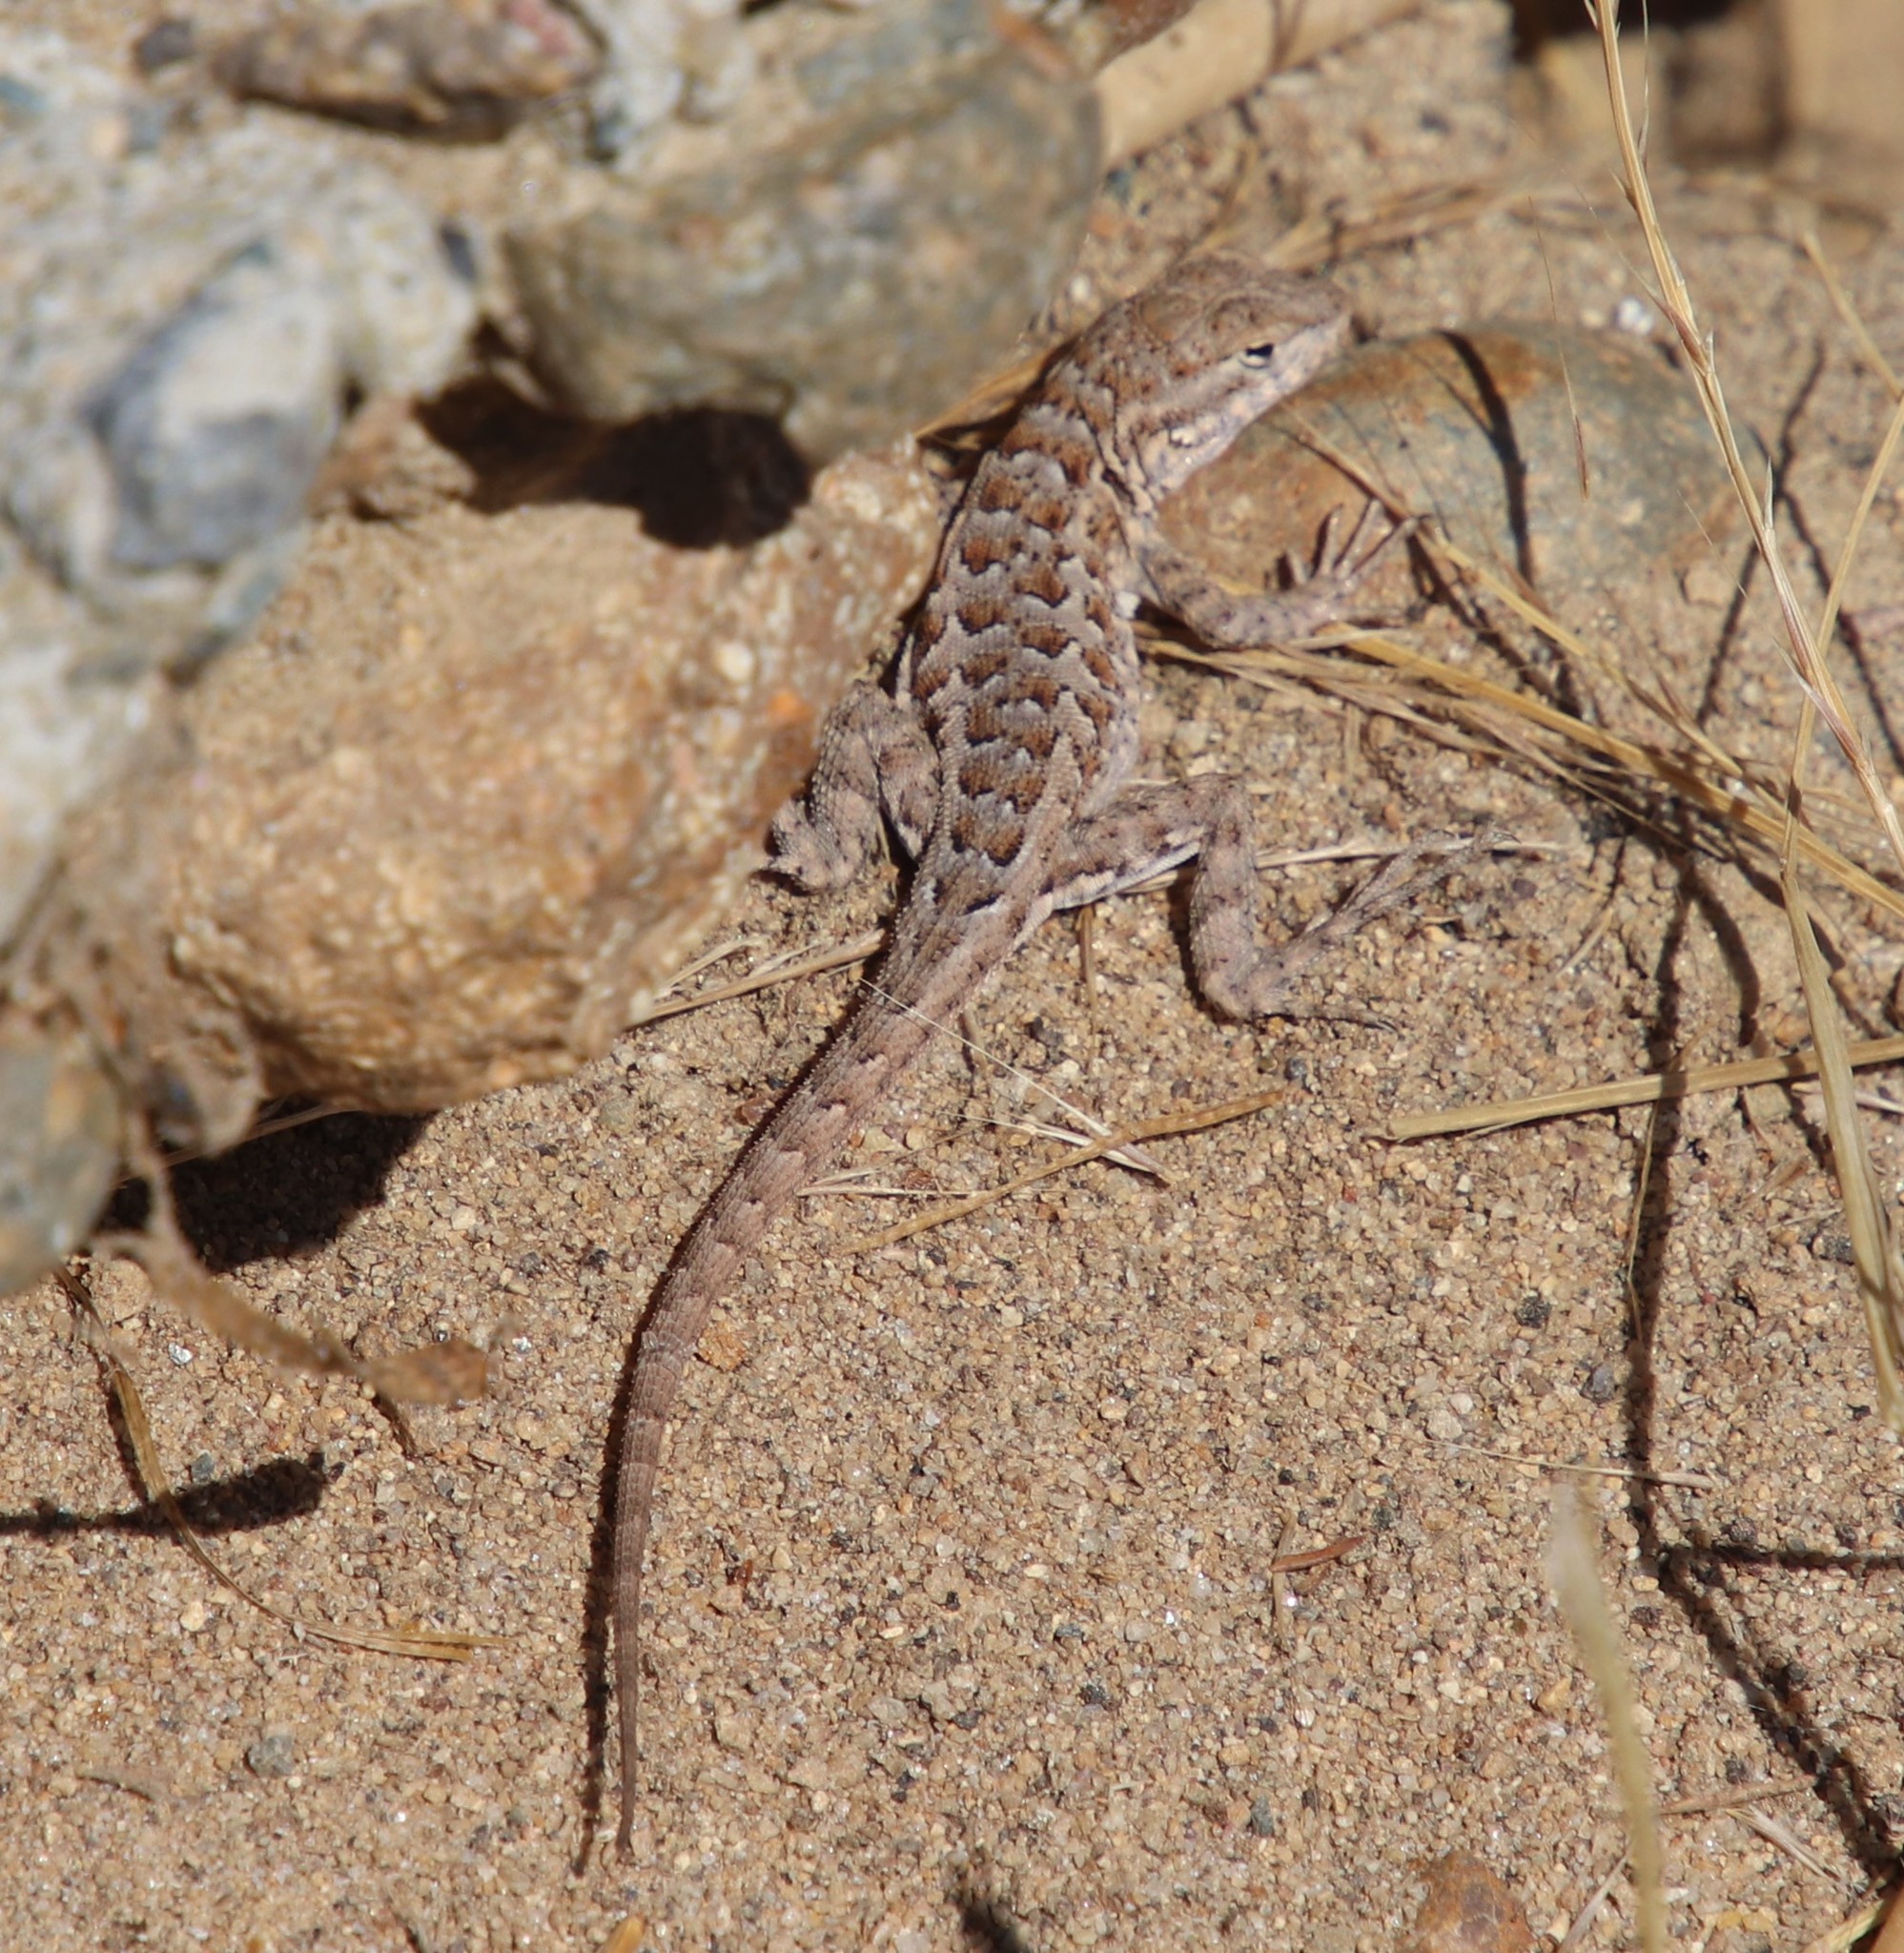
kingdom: Animalia
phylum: Chordata
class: Squamata
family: Phrynosomatidae
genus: Uta
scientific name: Uta stansburiana
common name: Side-blotched lizard
